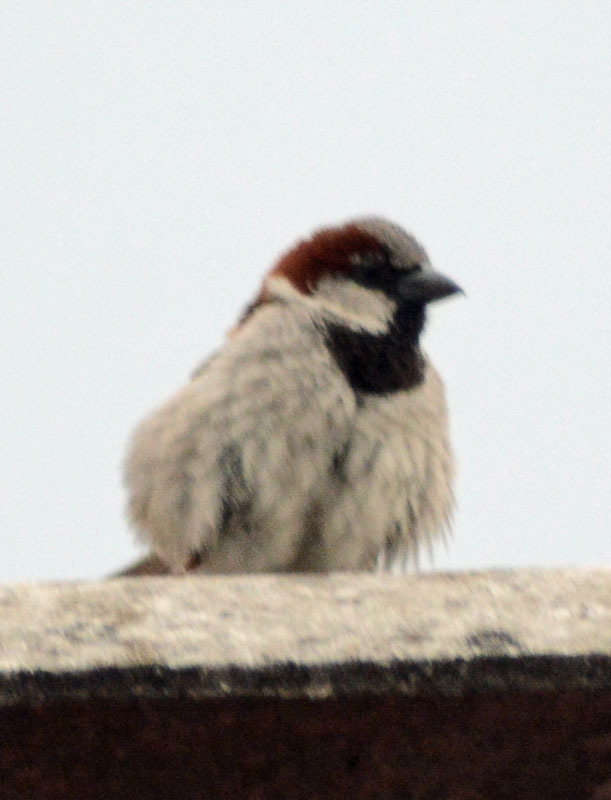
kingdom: Animalia
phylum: Chordata
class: Aves
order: Passeriformes
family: Passeridae
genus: Passer
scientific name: Passer domesticus
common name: House sparrow
